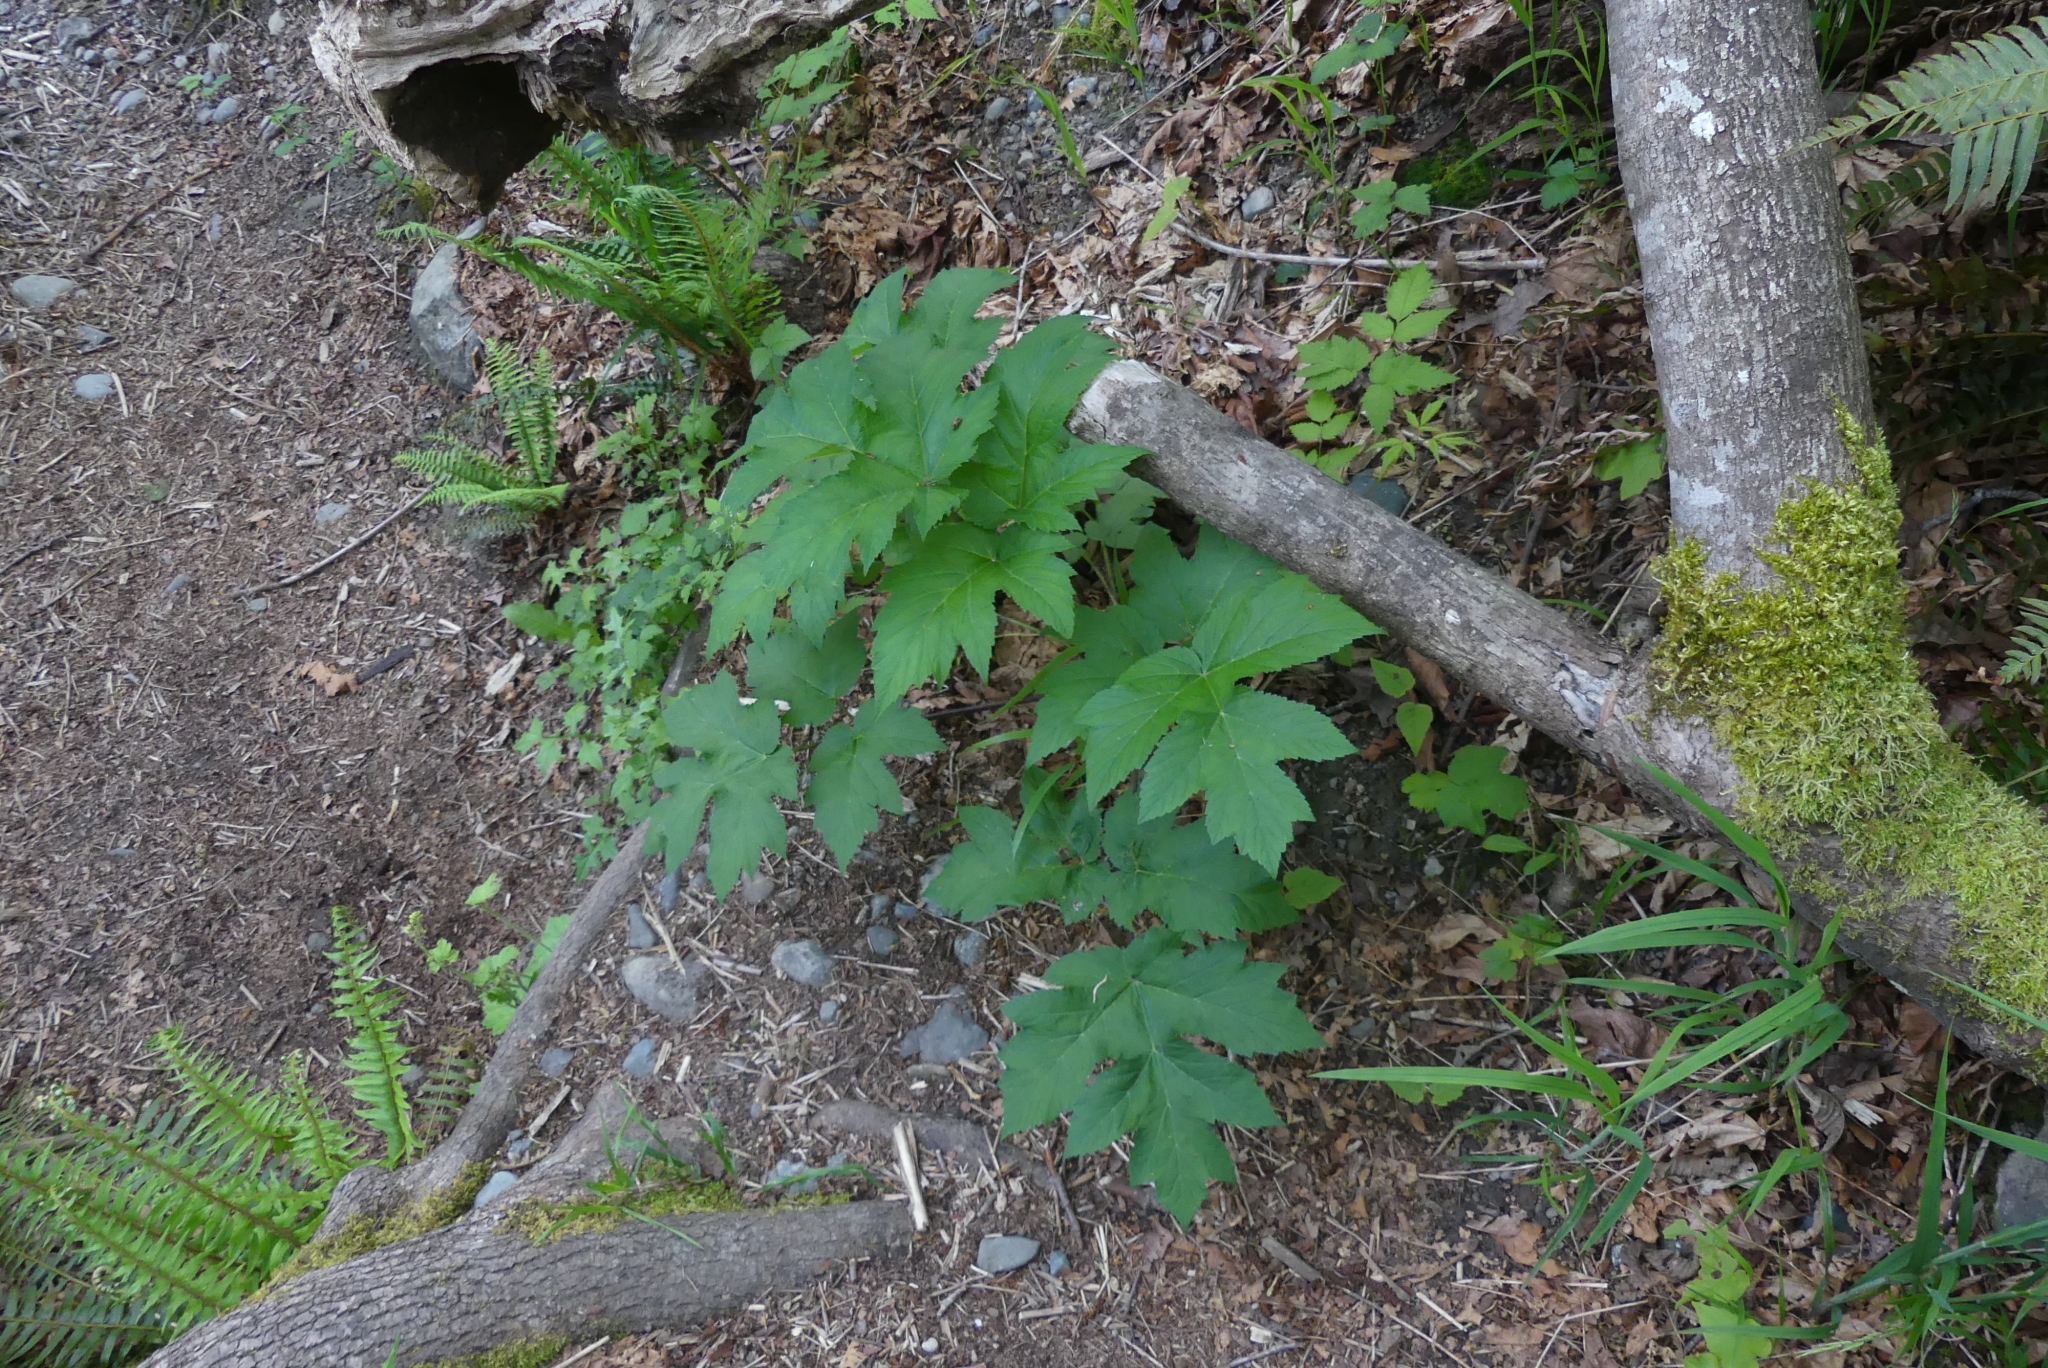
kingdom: Plantae
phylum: Tracheophyta
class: Magnoliopsida
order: Apiales
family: Apiaceae
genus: Heracleum
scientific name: Heracleum maximum
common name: American cow parsnip
